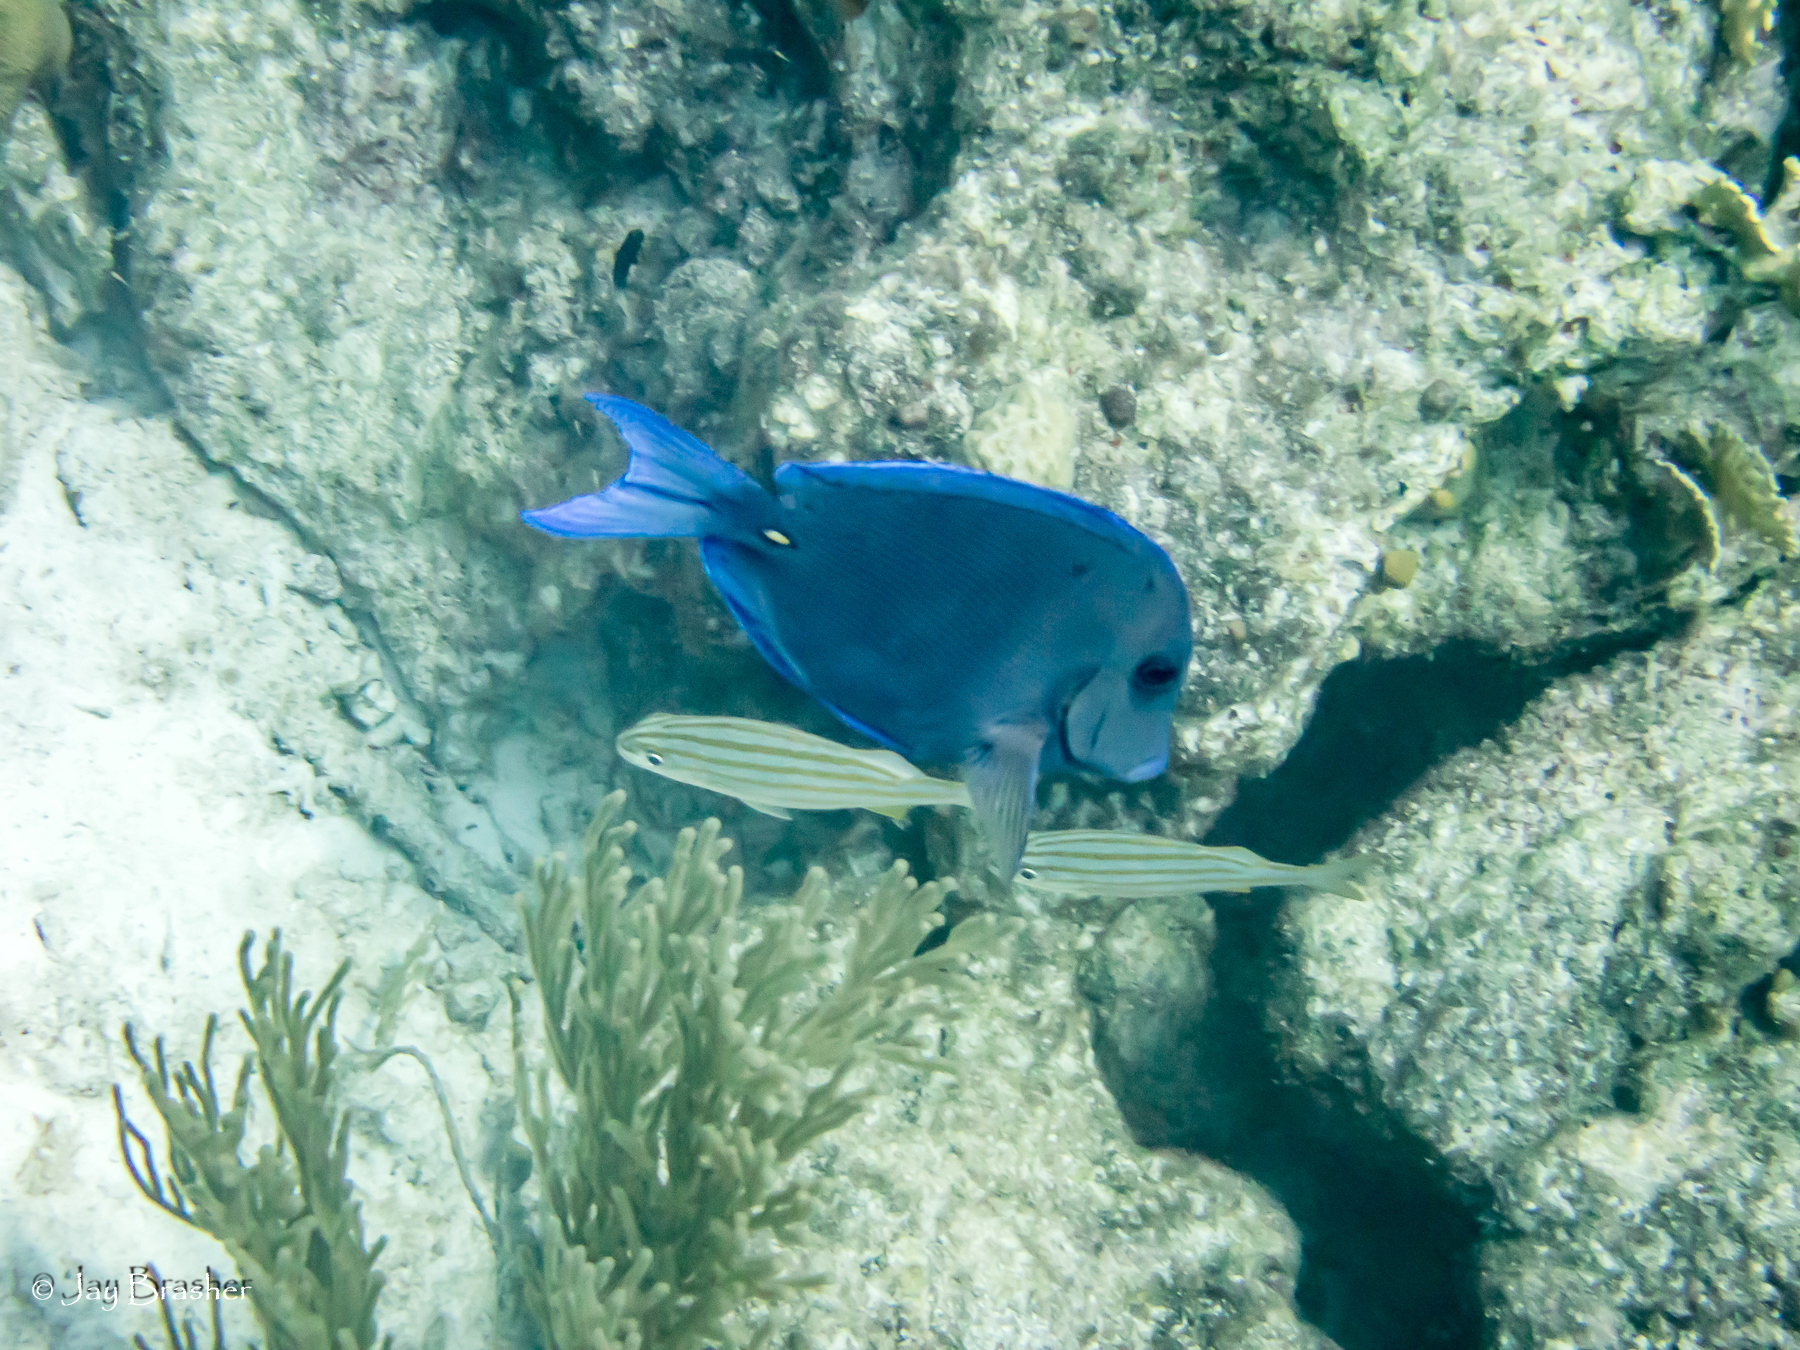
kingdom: Animalia
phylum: Chordata
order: Perciformes
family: Haemulidae
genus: Haemulon
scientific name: Haemulon chrysargyreum
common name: Smallmouth grunt
